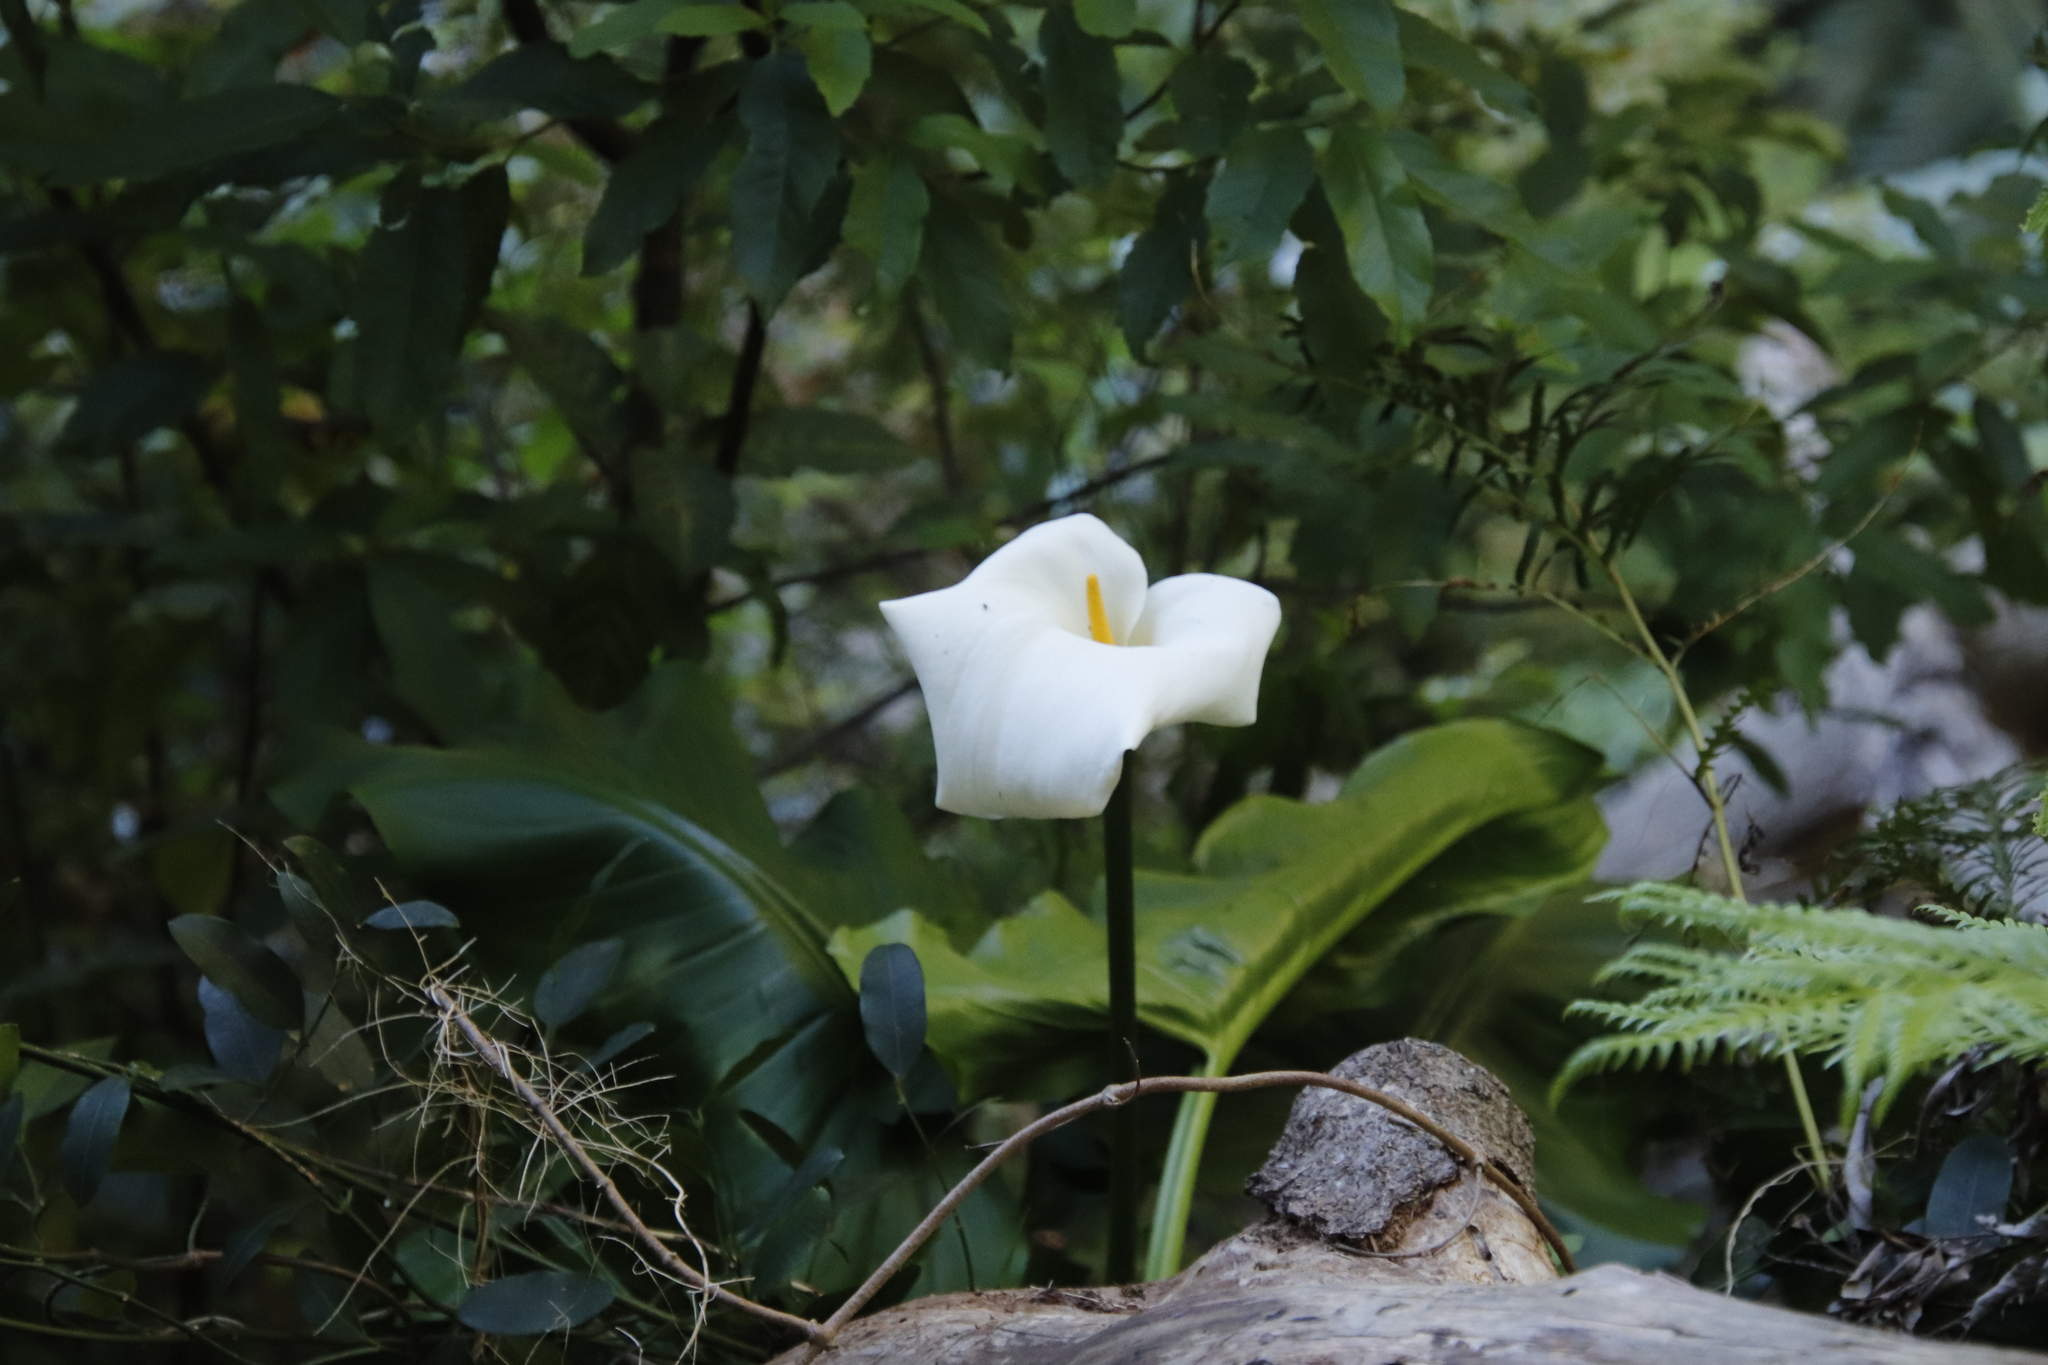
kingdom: Plantae
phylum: Tracheophyta
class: Liliopsida
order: Alismatales
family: Araceae
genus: Zantedeschia
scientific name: Zantedeschia aethiopica
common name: Altar-lily
